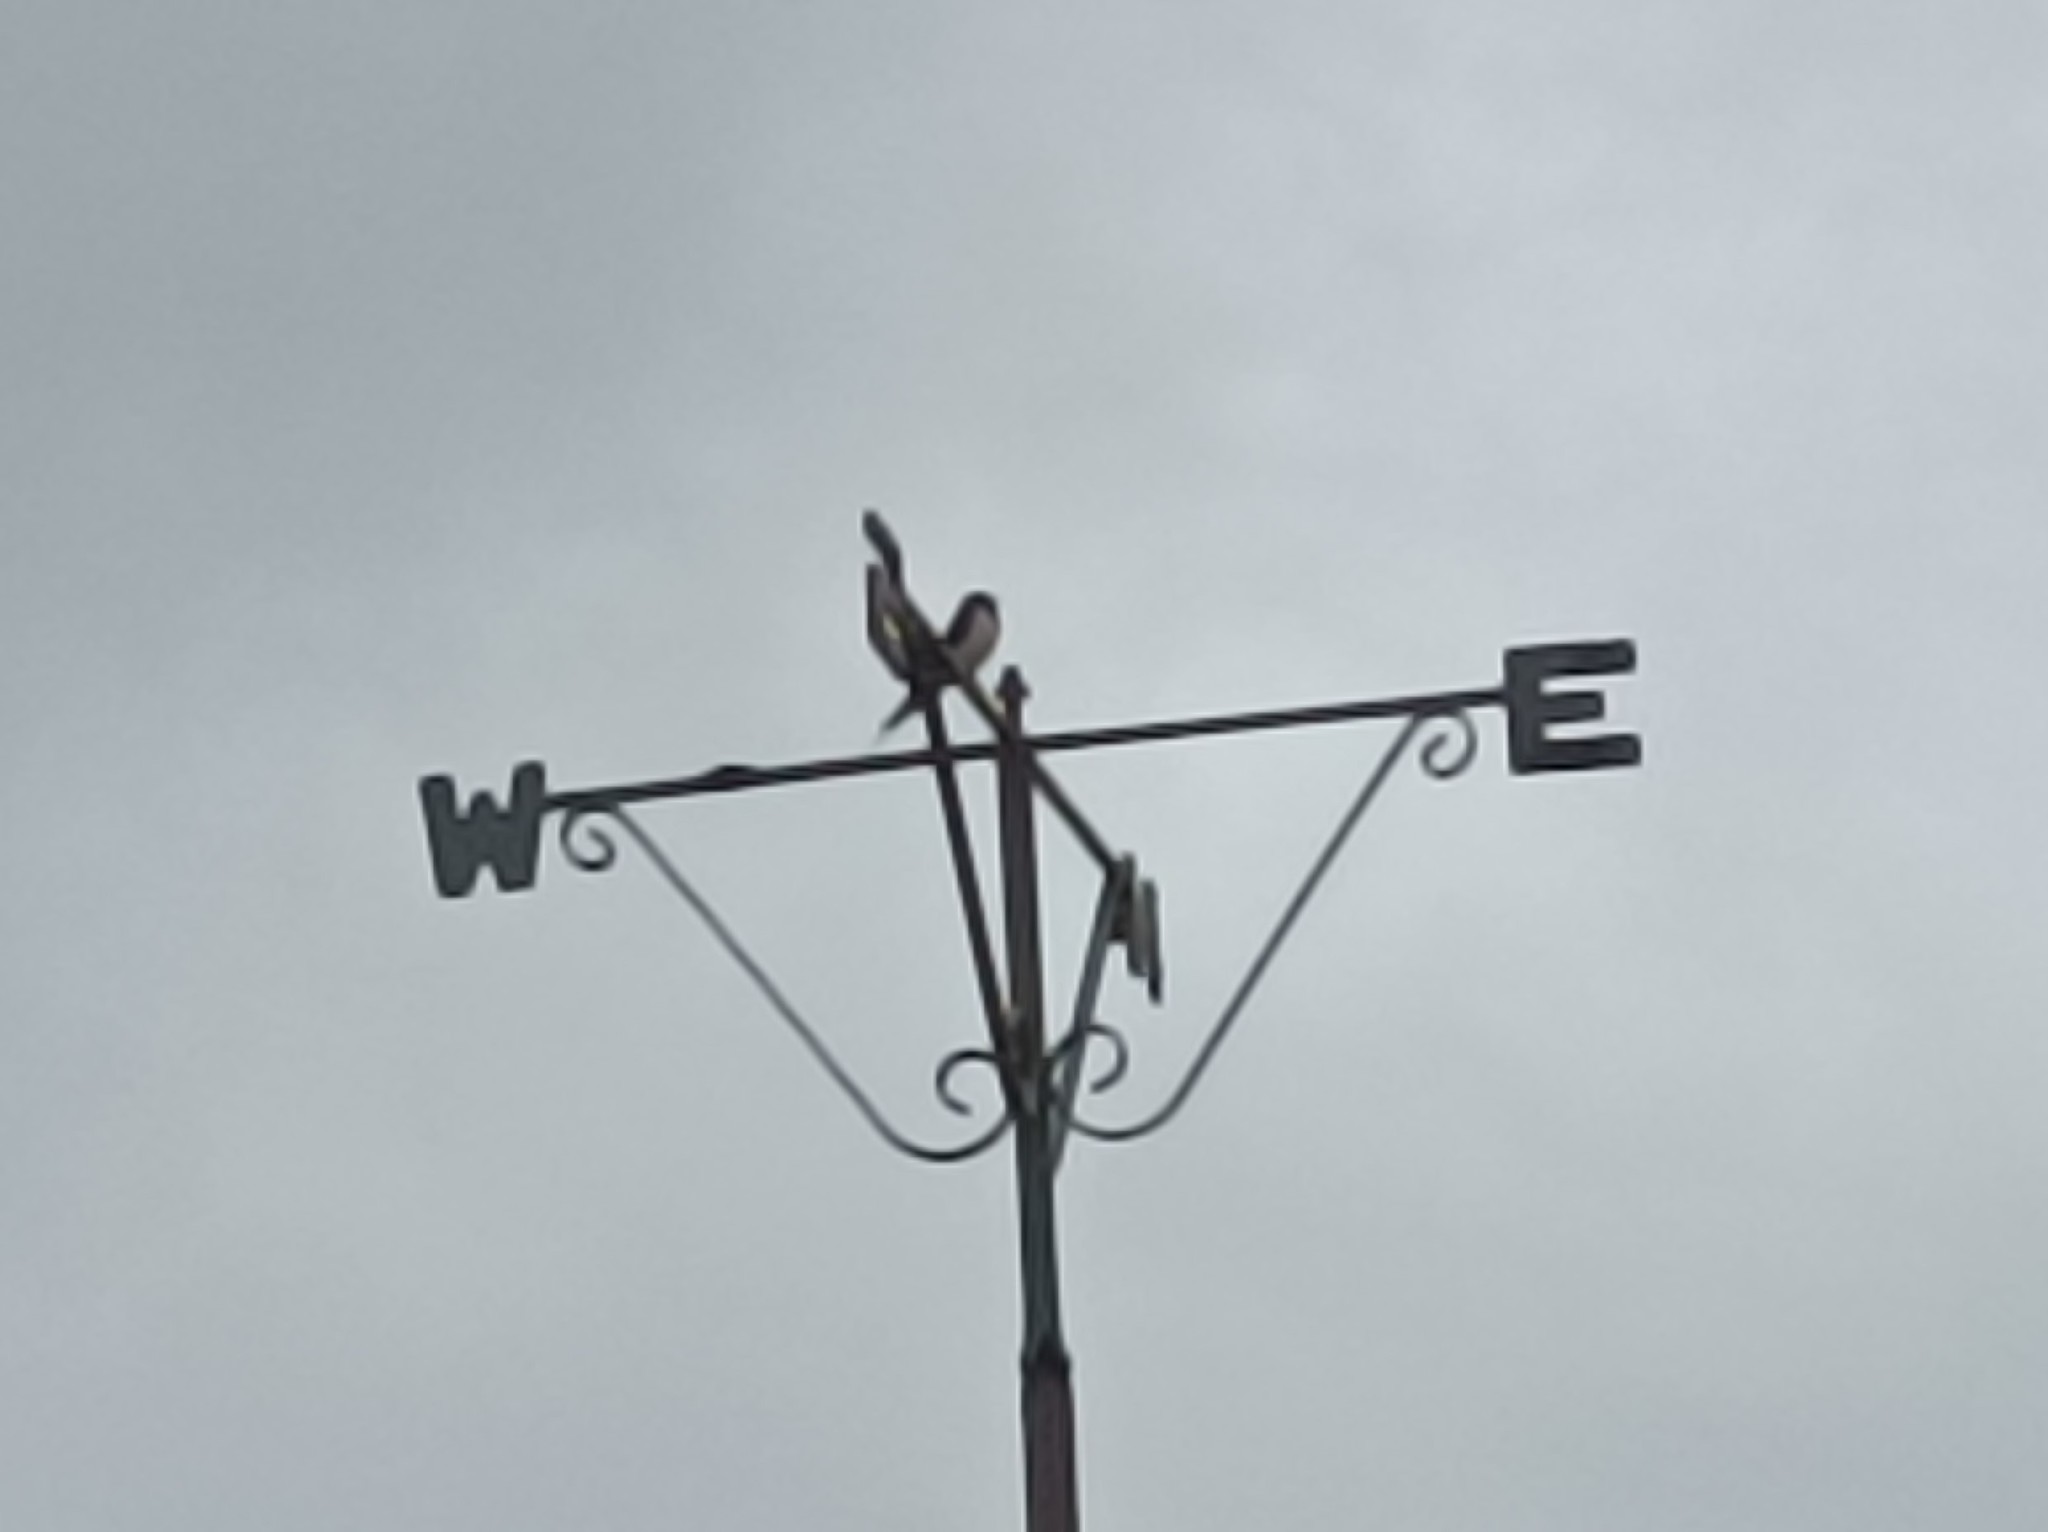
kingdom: Animalia
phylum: Chordata
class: Aves
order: Passeriformes
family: Hirundinidae
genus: Hirundo
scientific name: Hirundo rustica
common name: Barn swallow
